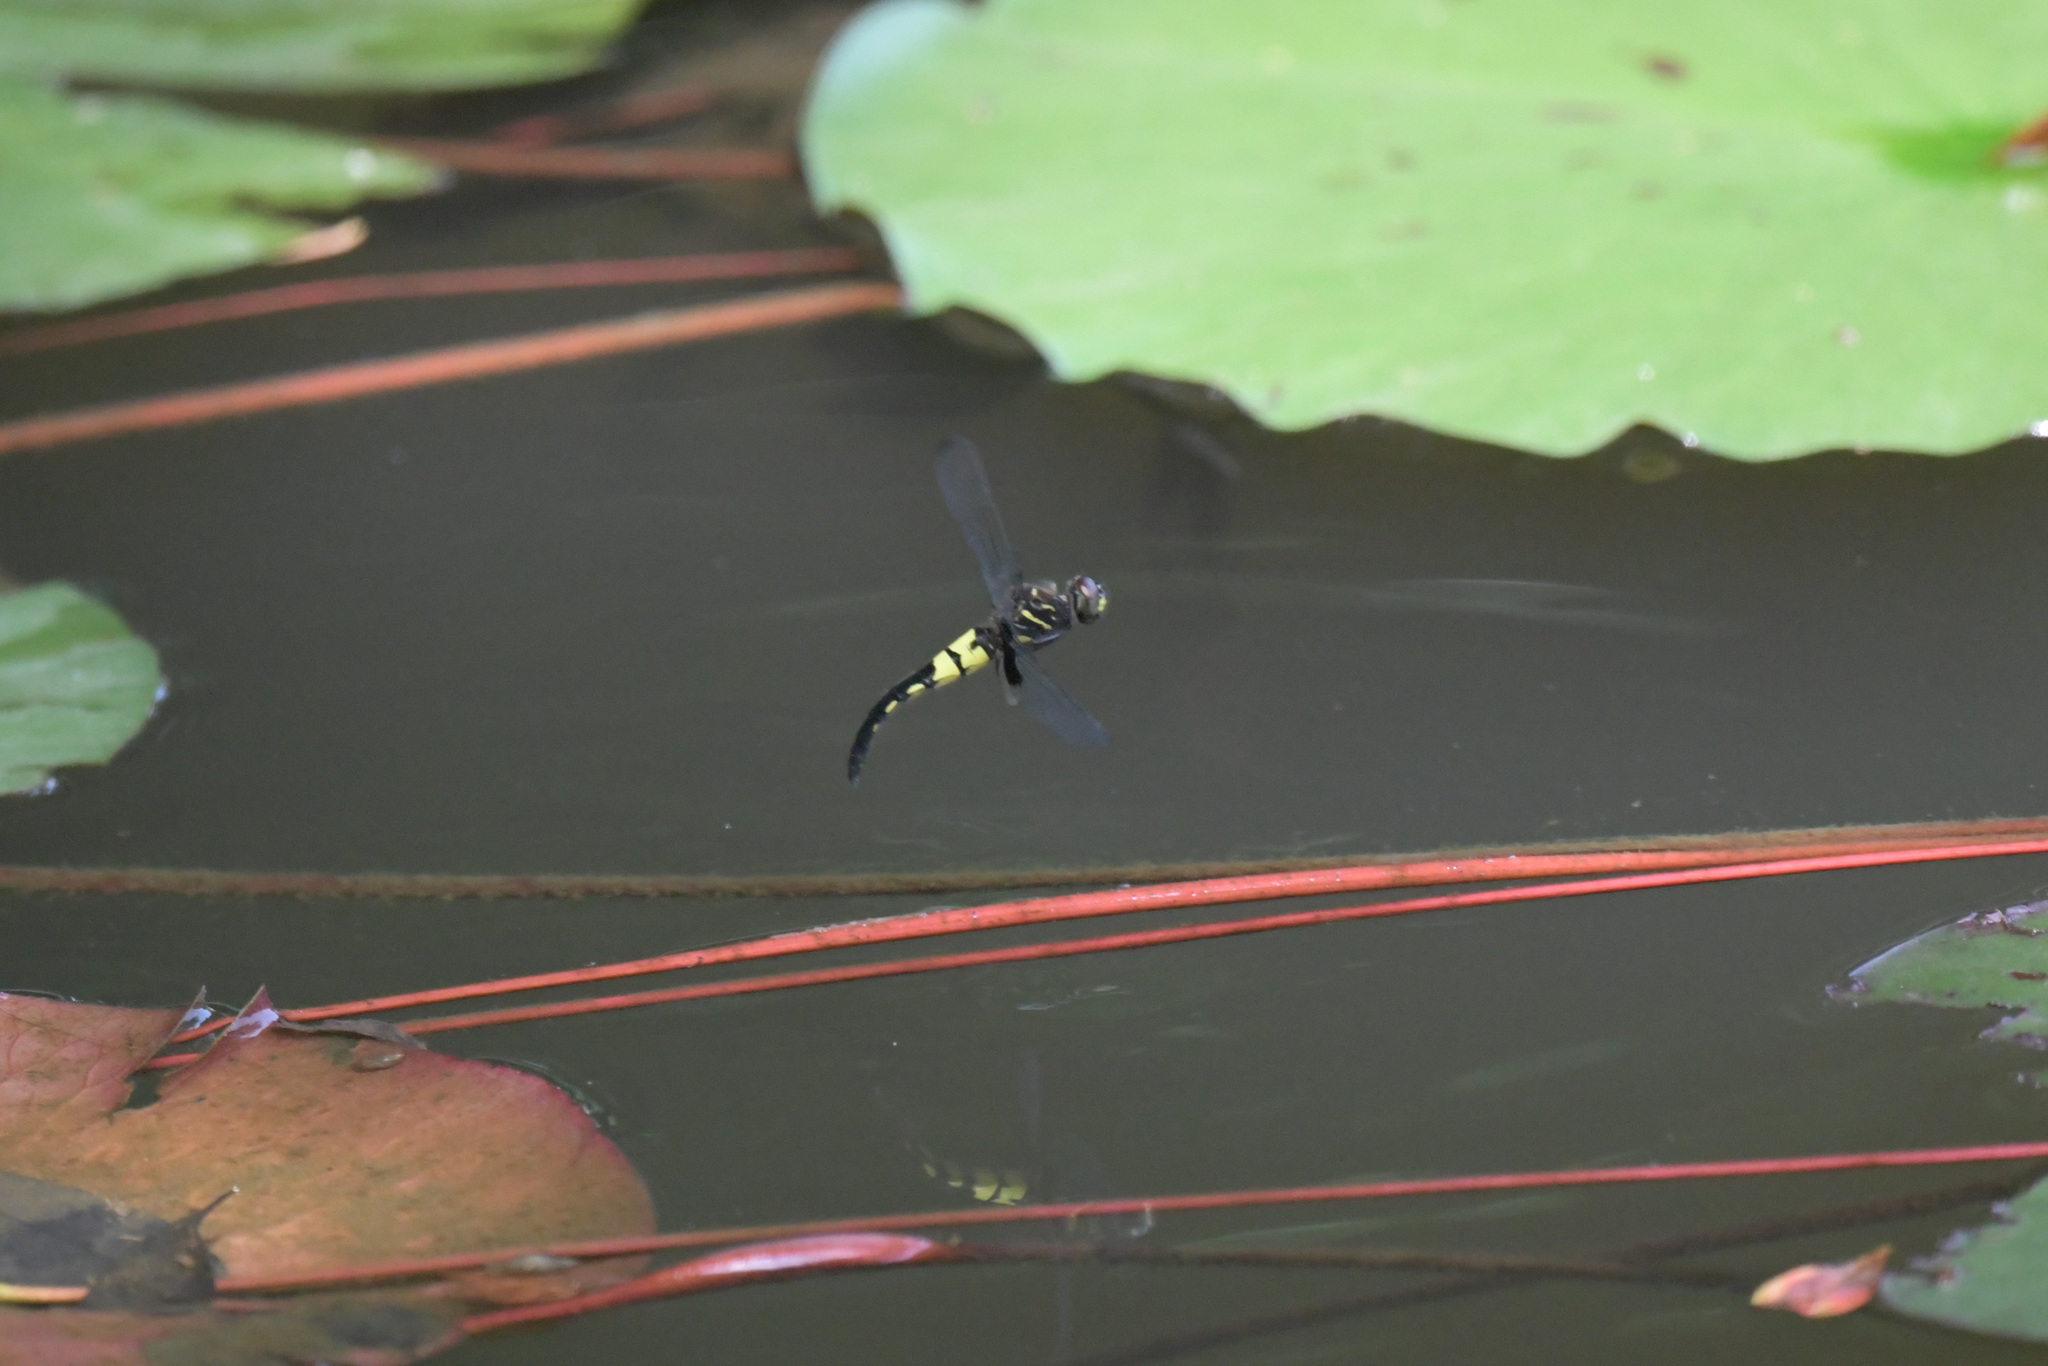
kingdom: Animalia
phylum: Arthropoda
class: Insecta
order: Odonata
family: Libellulidae
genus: Pseudothemis
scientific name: Pseudothemis zonata
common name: Pied skimmer
